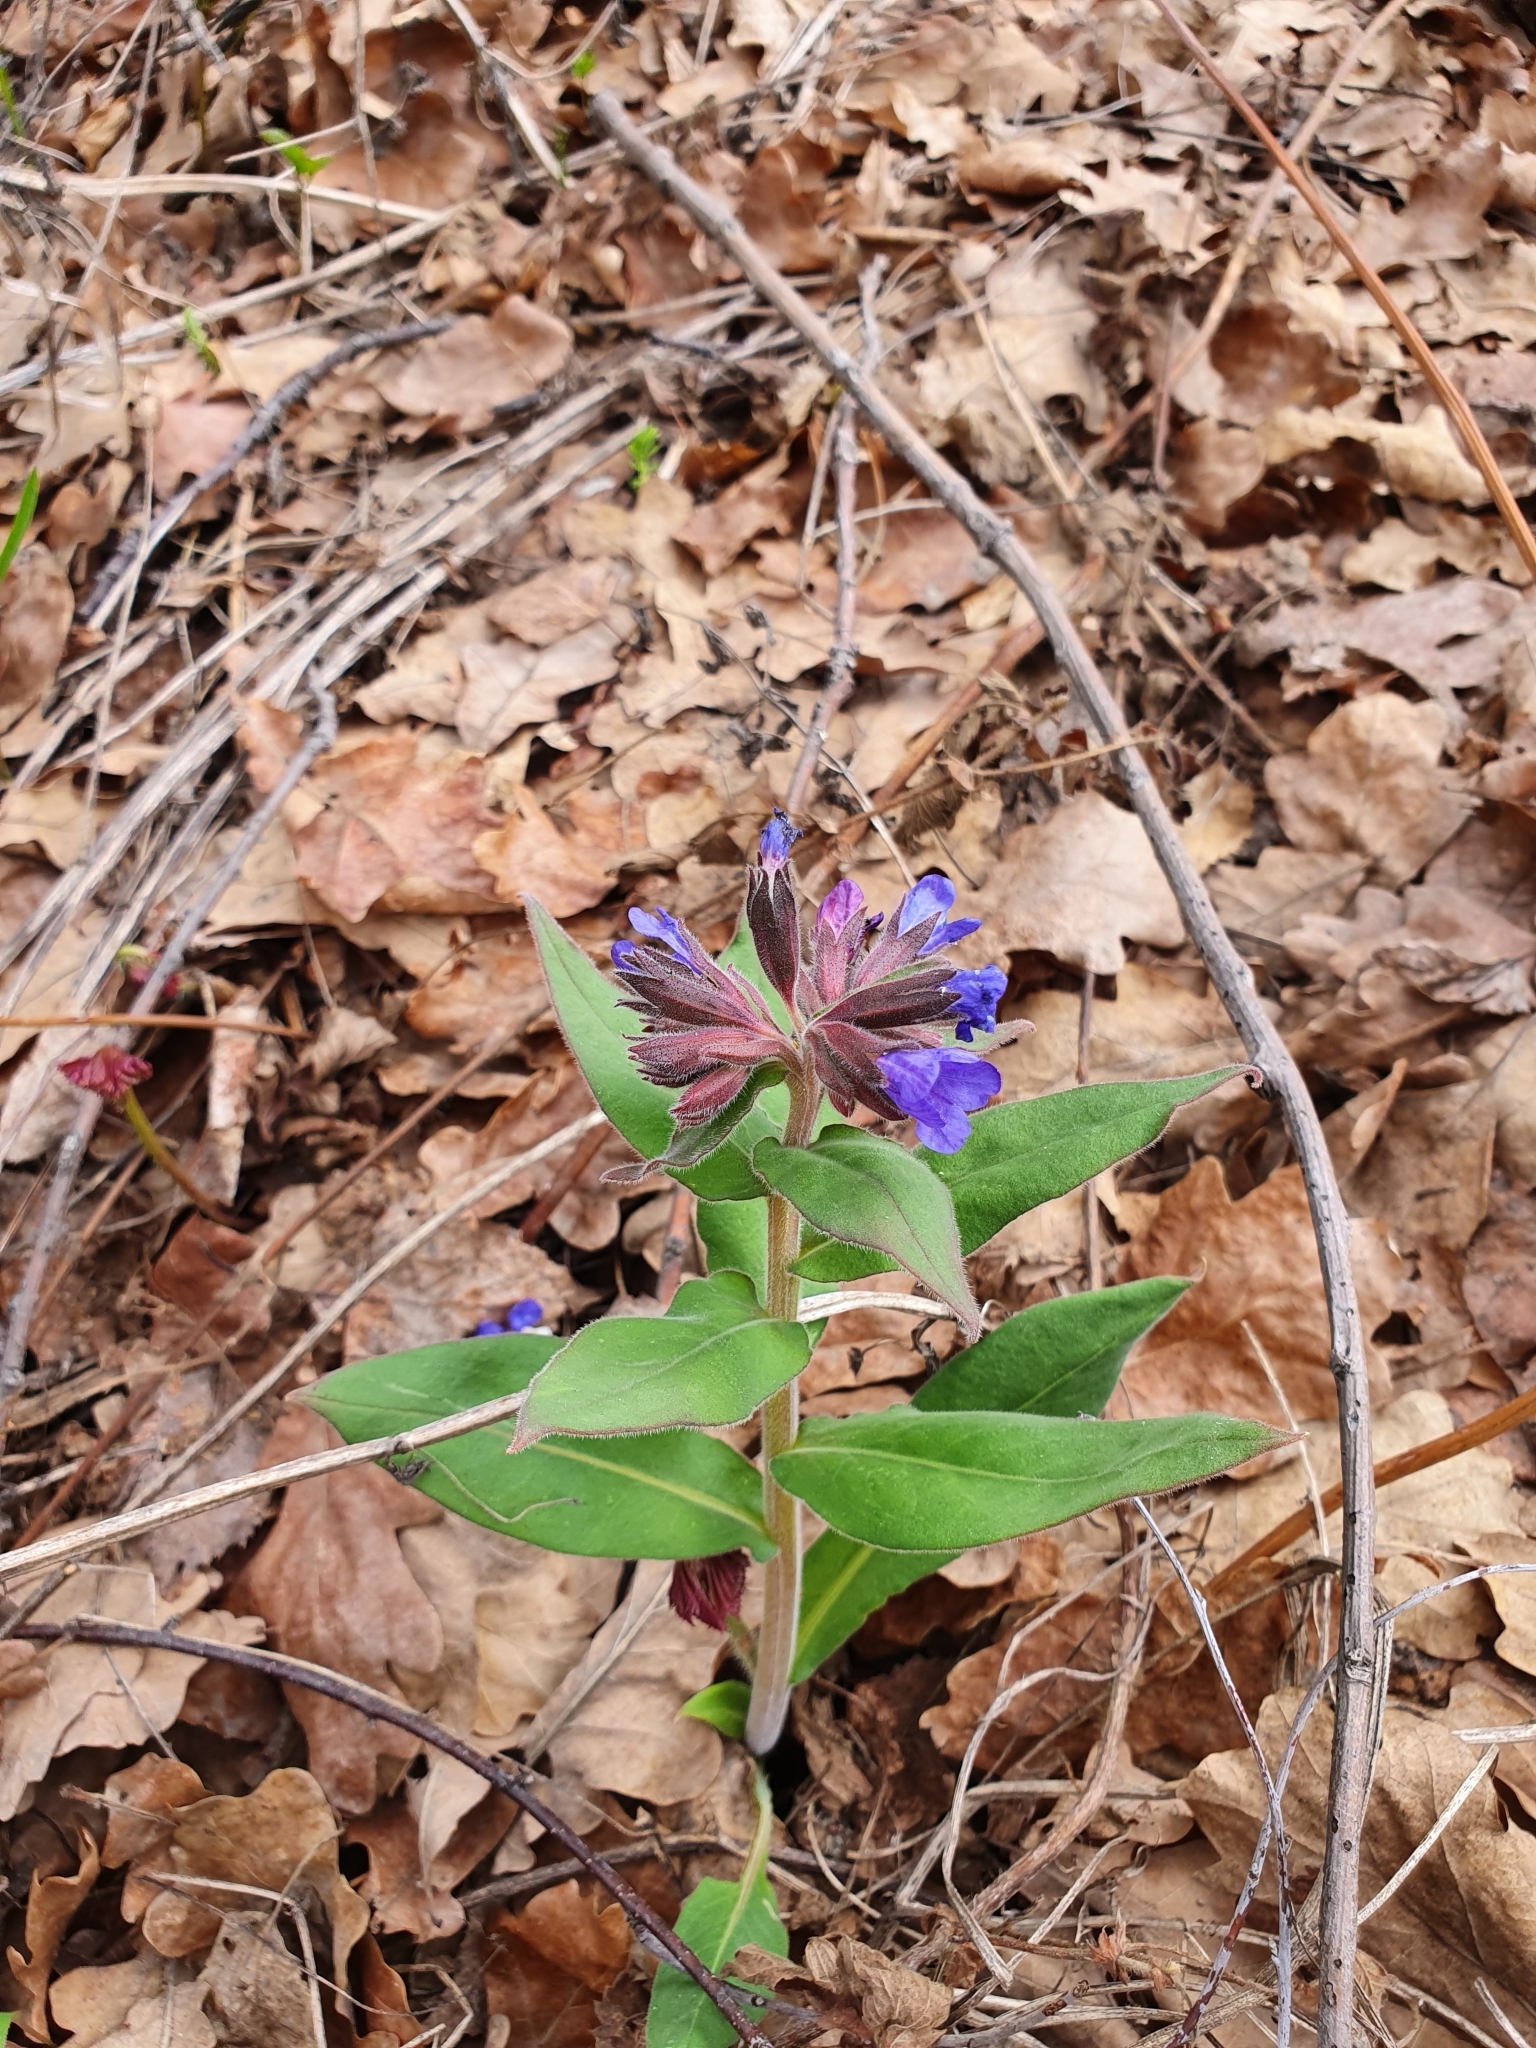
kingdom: Plantae
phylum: Tracheophyta
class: Magnoliopsida
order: Boraginales
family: Boraginaceae
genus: Pulmonaria
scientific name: Pulmonaria mollis
